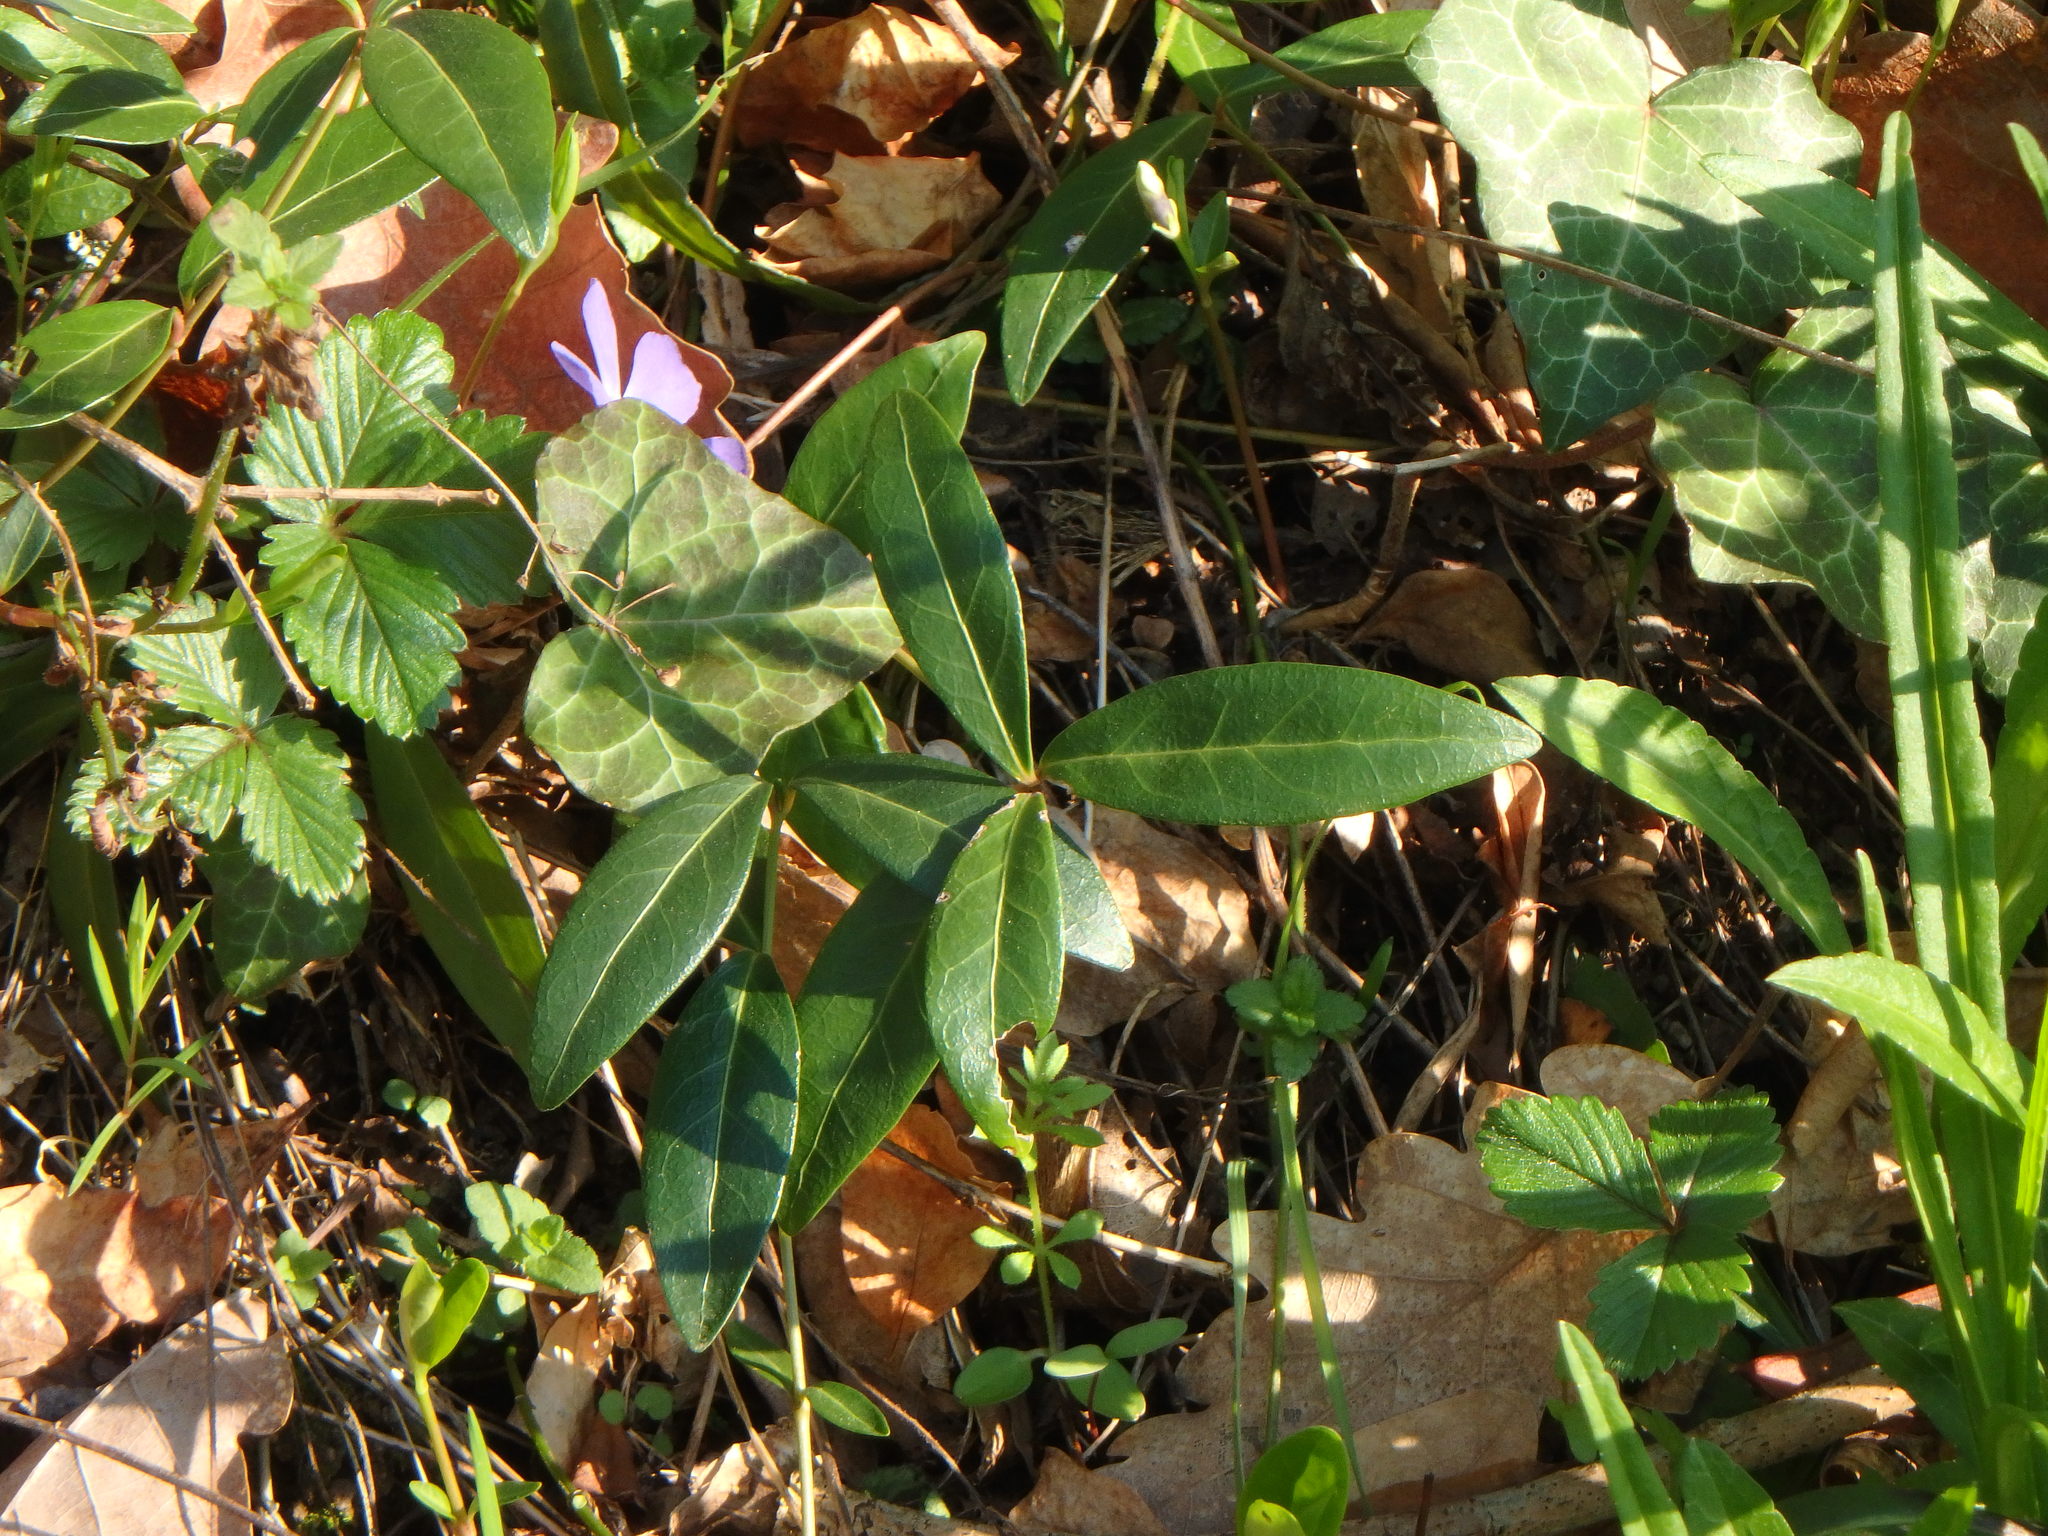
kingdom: Plantae
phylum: Tracheophyta
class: Magnoliopsida
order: Gentianales
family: Apocynaceae
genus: Vinca
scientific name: Vinca minor
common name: Lesser periwinkle
